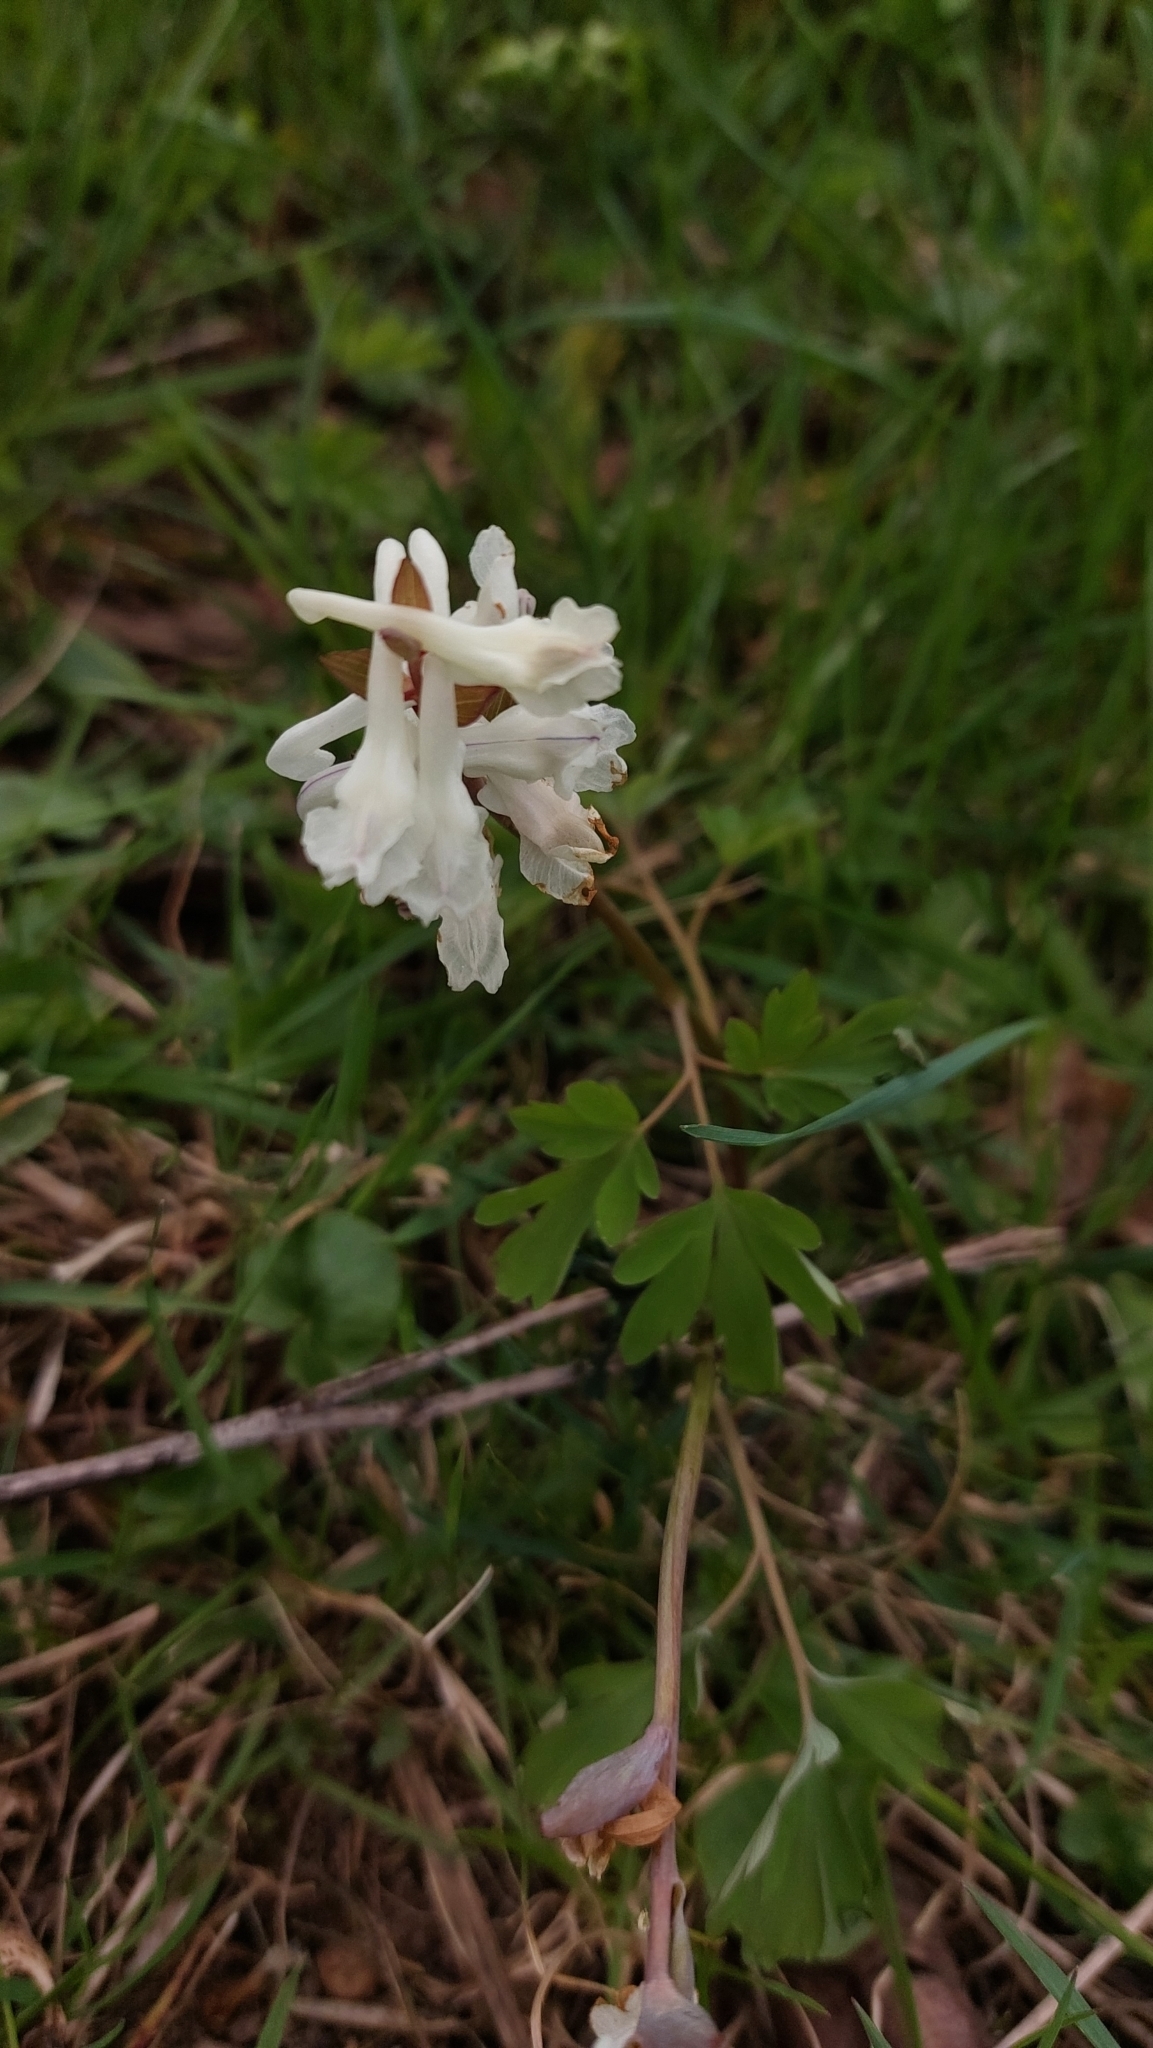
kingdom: Plantae
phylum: Tracheophyta
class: Magnoliopsida
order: Ranunculales
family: Papaveraceae
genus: Corydalis
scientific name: Corydalis cava
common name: Hollowroot
